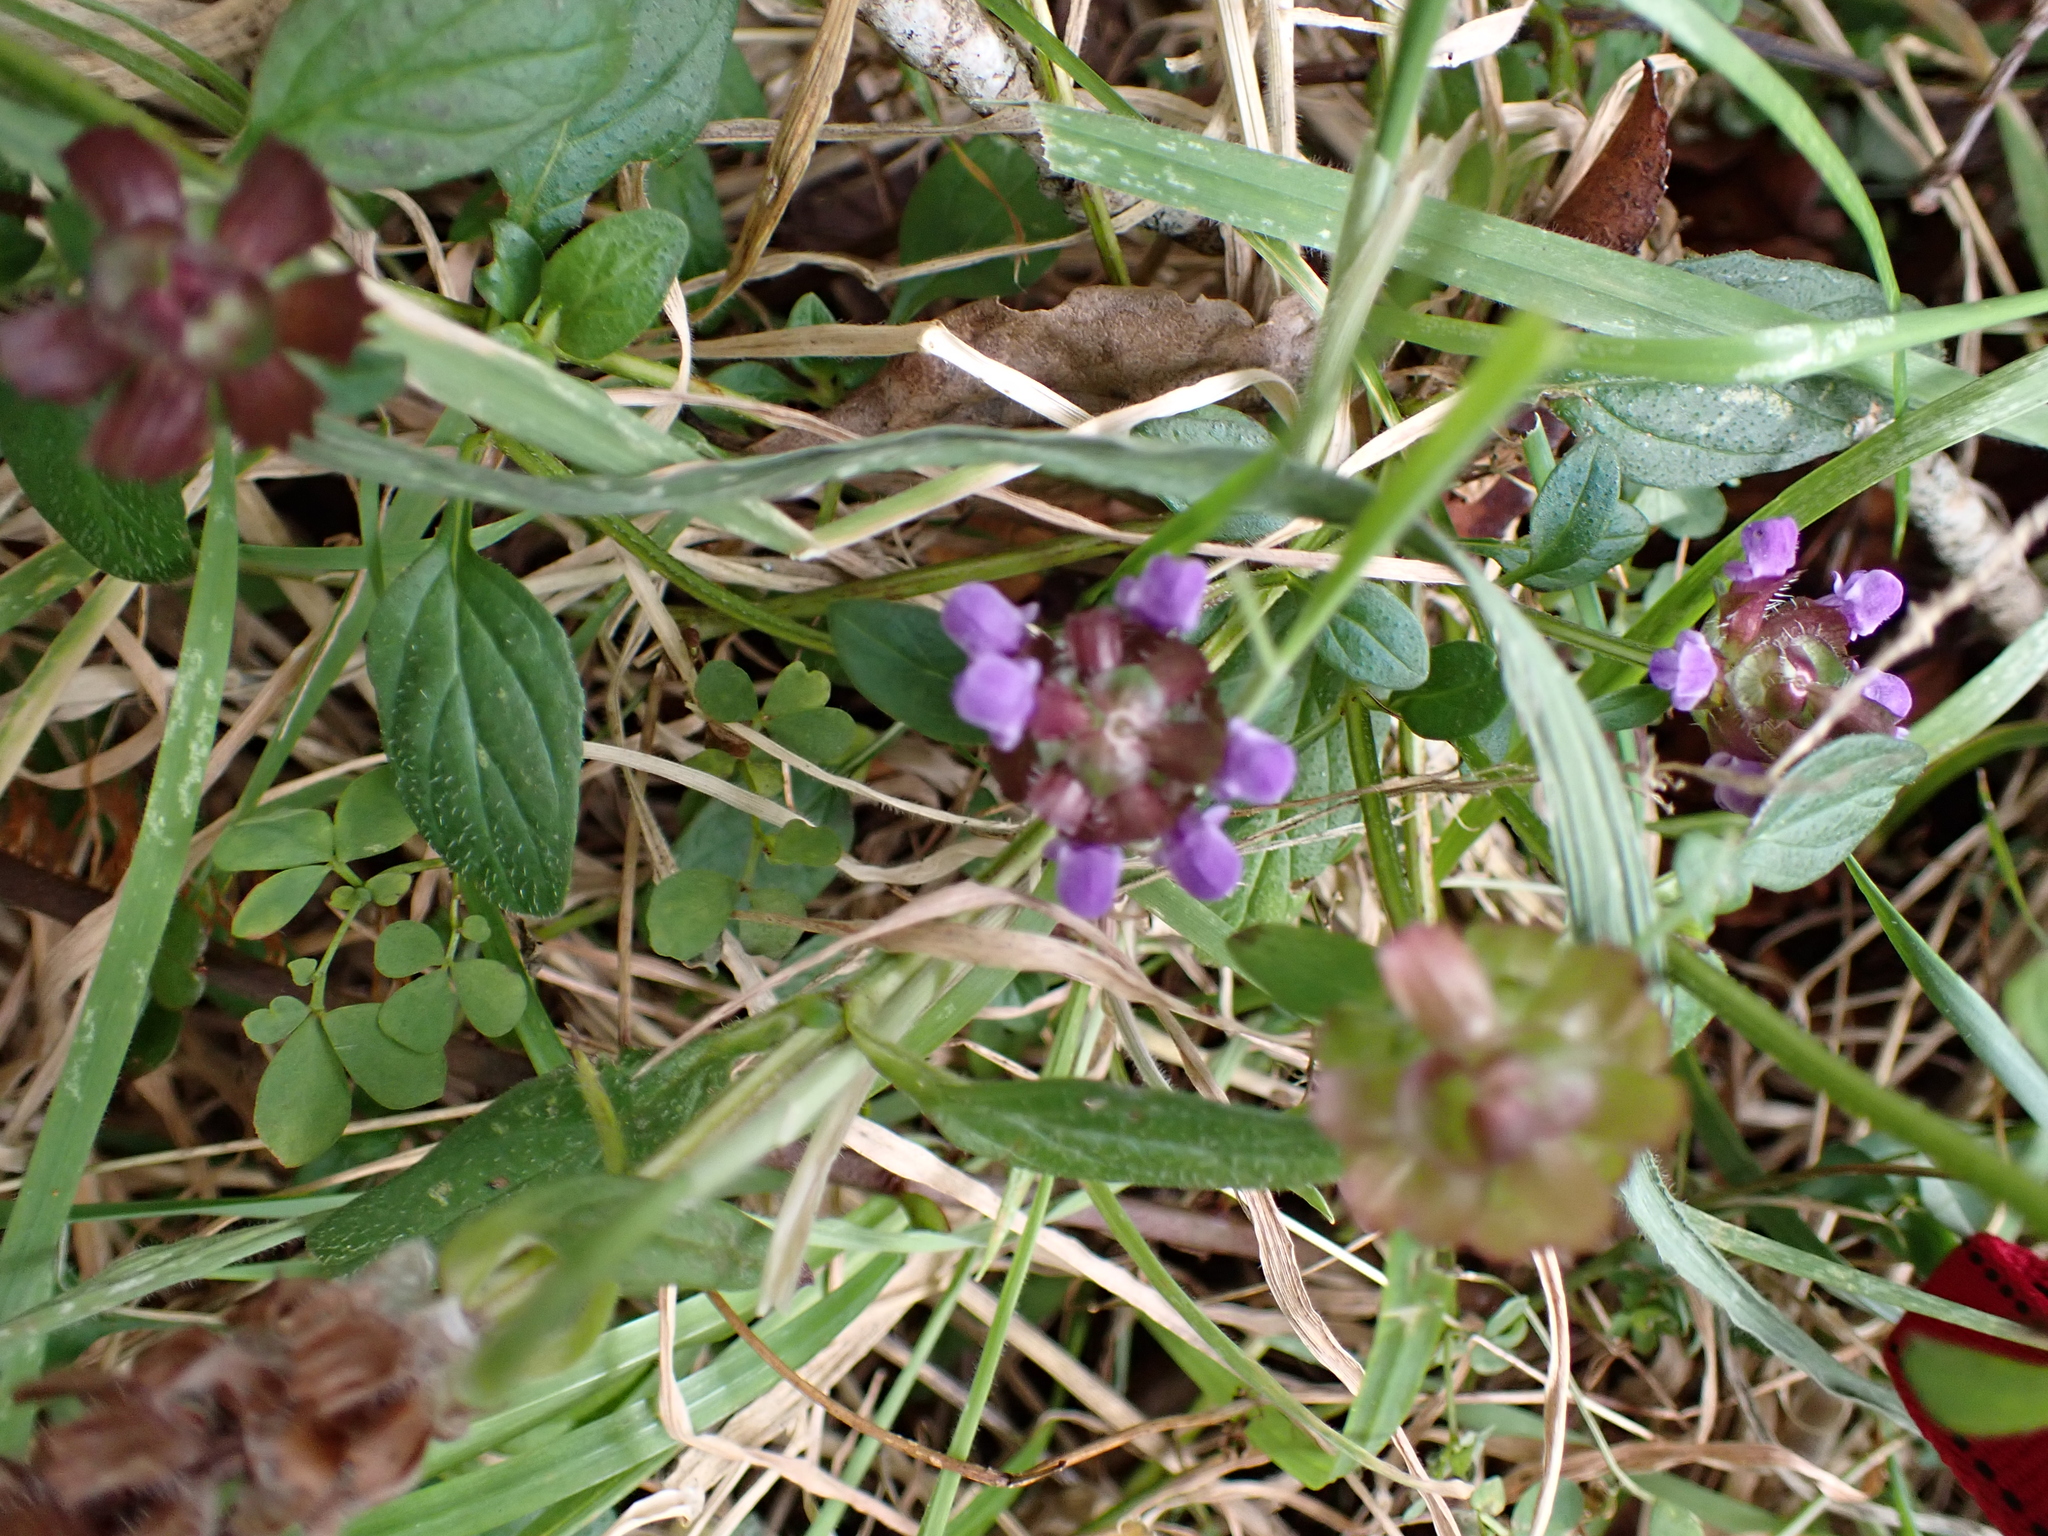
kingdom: Plantae
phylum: Tracheophyta
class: Magnoliopsida
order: Lamiales
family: Lamiaceae
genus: Prunella
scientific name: Prunella vulgaris
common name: Heal-all
